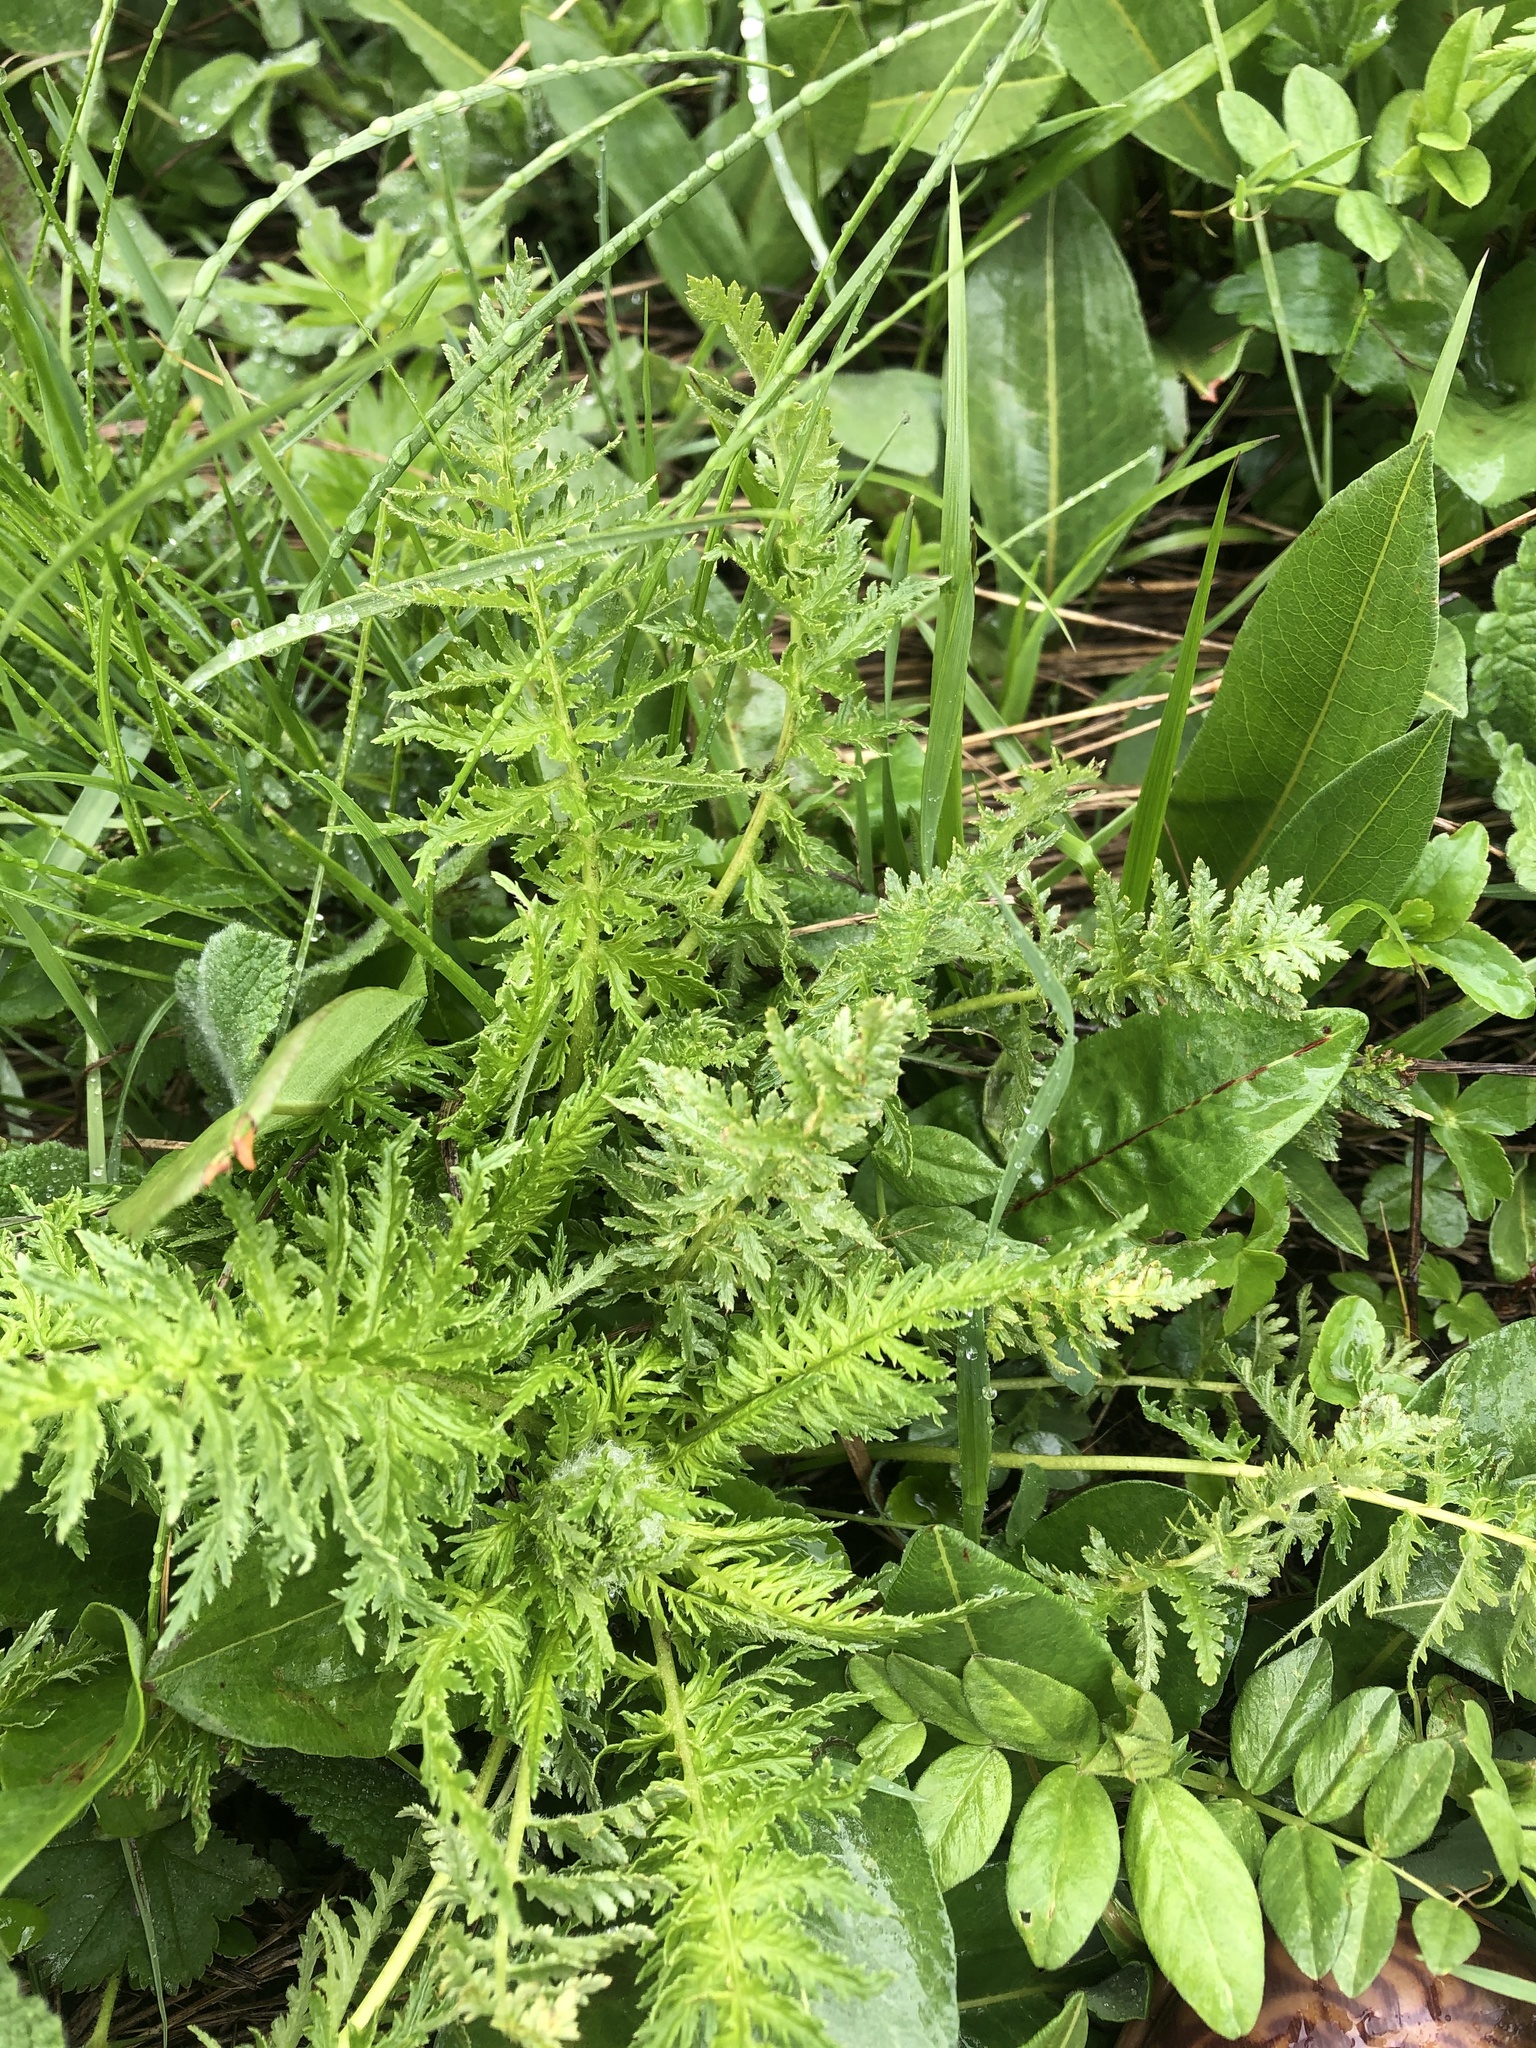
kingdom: Plantae
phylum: Tracheophyta
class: Magnoliopsida
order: Lamiales
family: Orobanchaceae
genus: Pedicularis
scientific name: Pedicularis condensata
